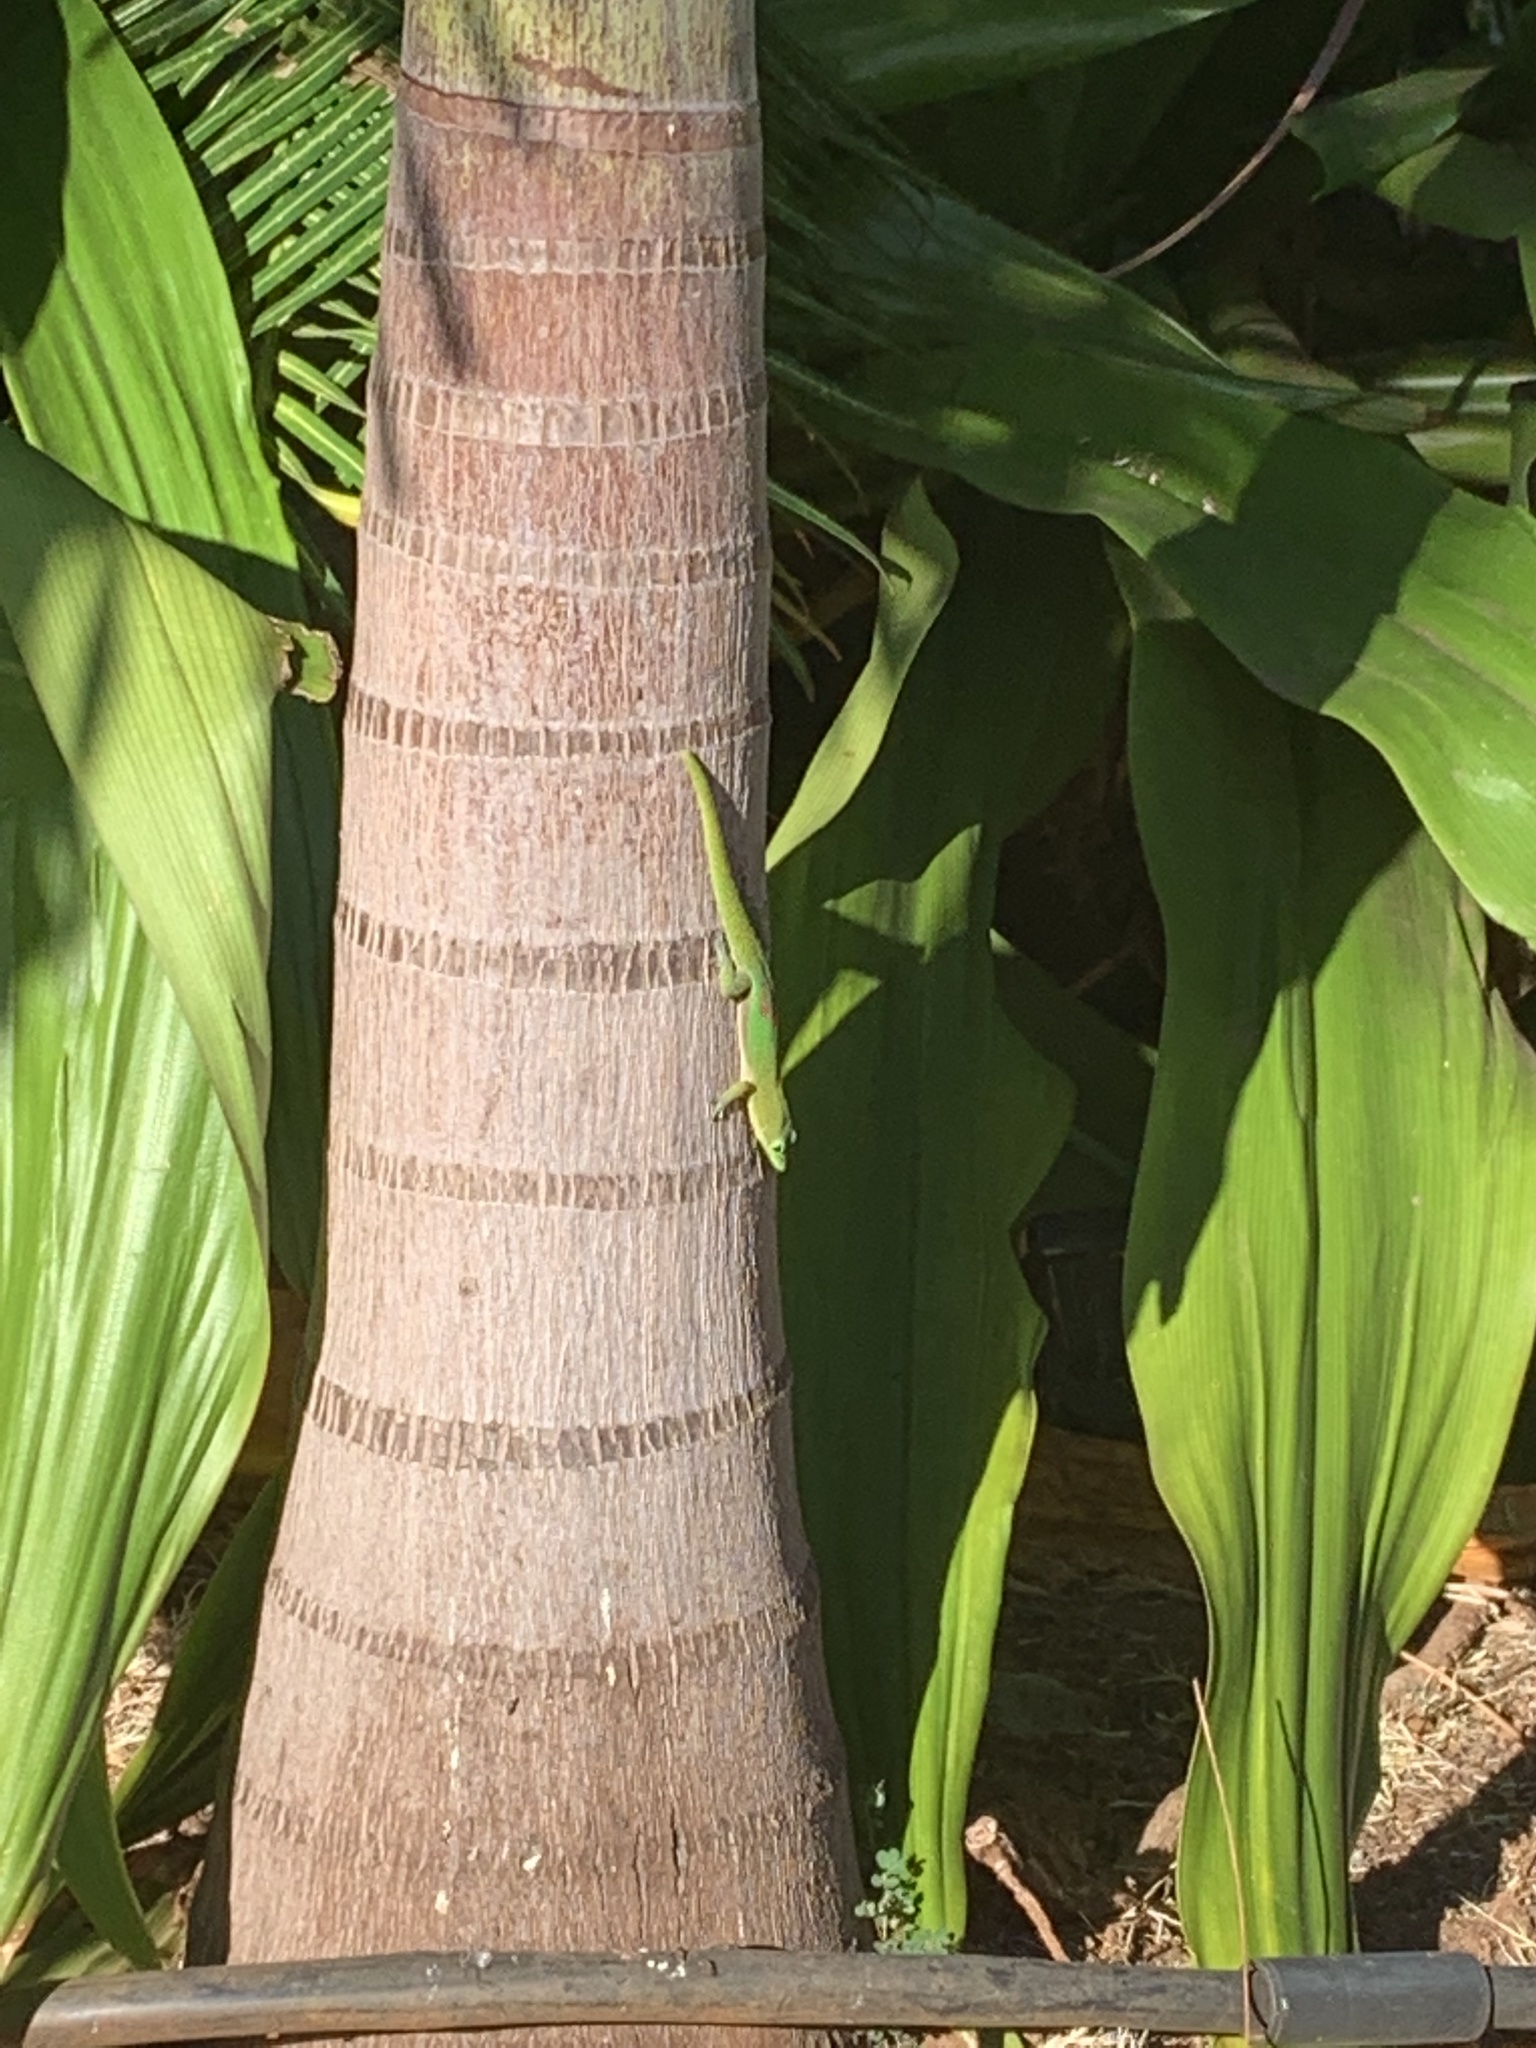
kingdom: Animalia
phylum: Chordata
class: Squamata
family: Gekkonidae
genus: Phelsuma
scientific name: Phelsuma laticauda
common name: Gold dust day gecko
